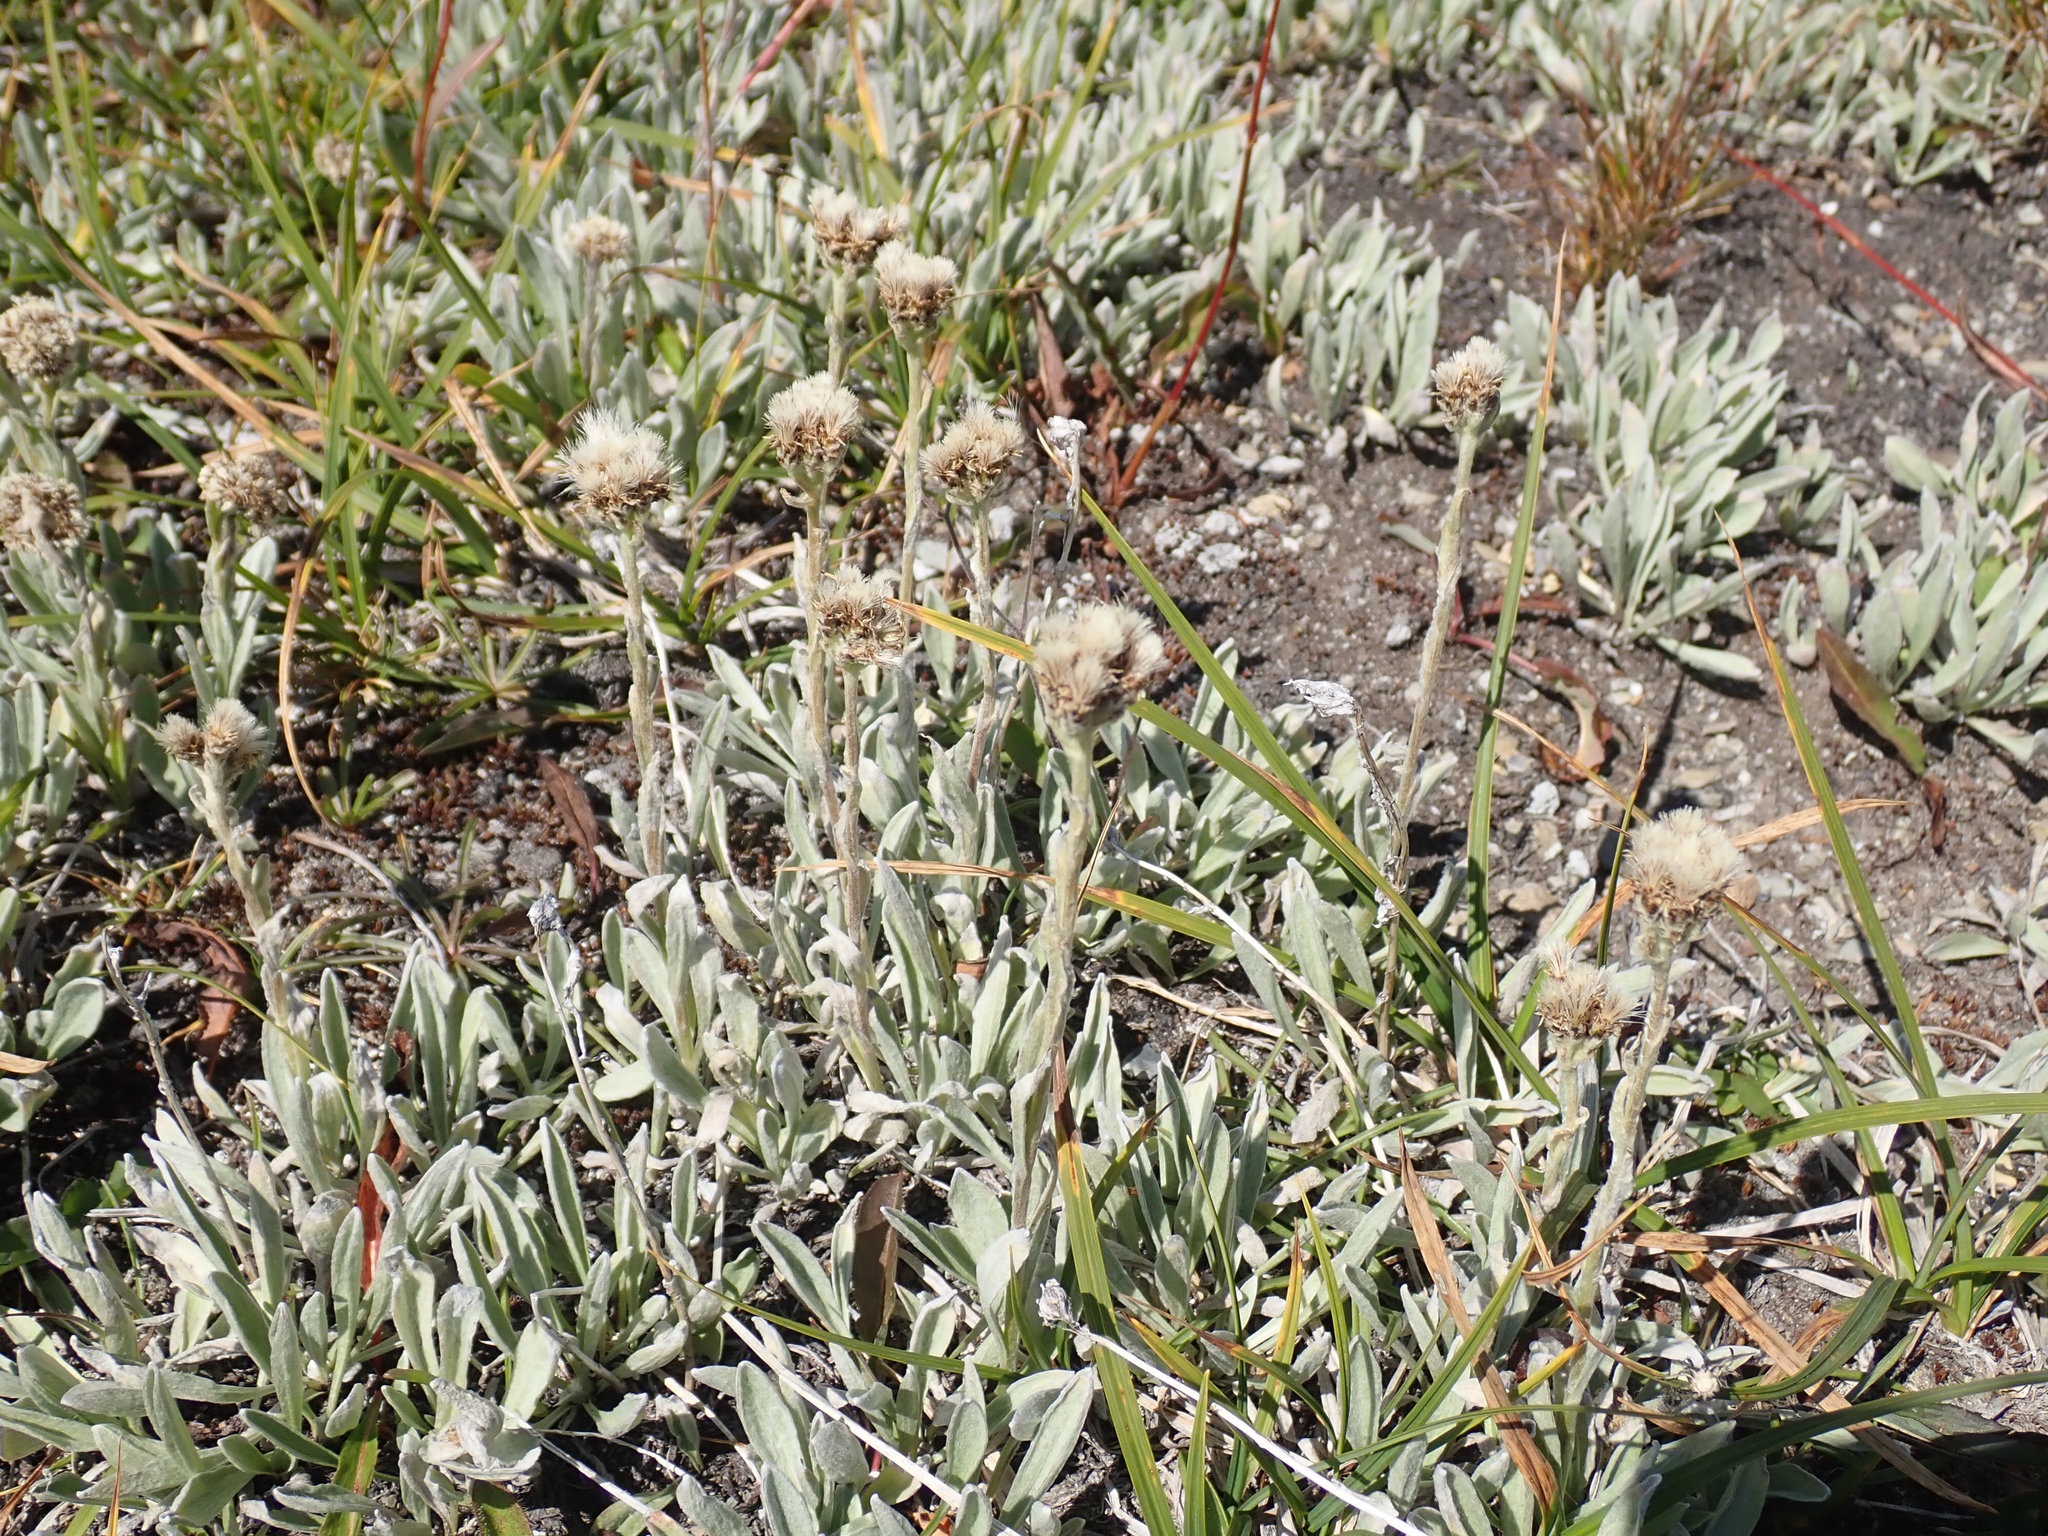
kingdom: Plantae
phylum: Tracheophyta
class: Magnoliopsida
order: Asterales
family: Asteraceae
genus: Antennaria
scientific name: Antennaria lanata
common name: Woolly pussytoes
